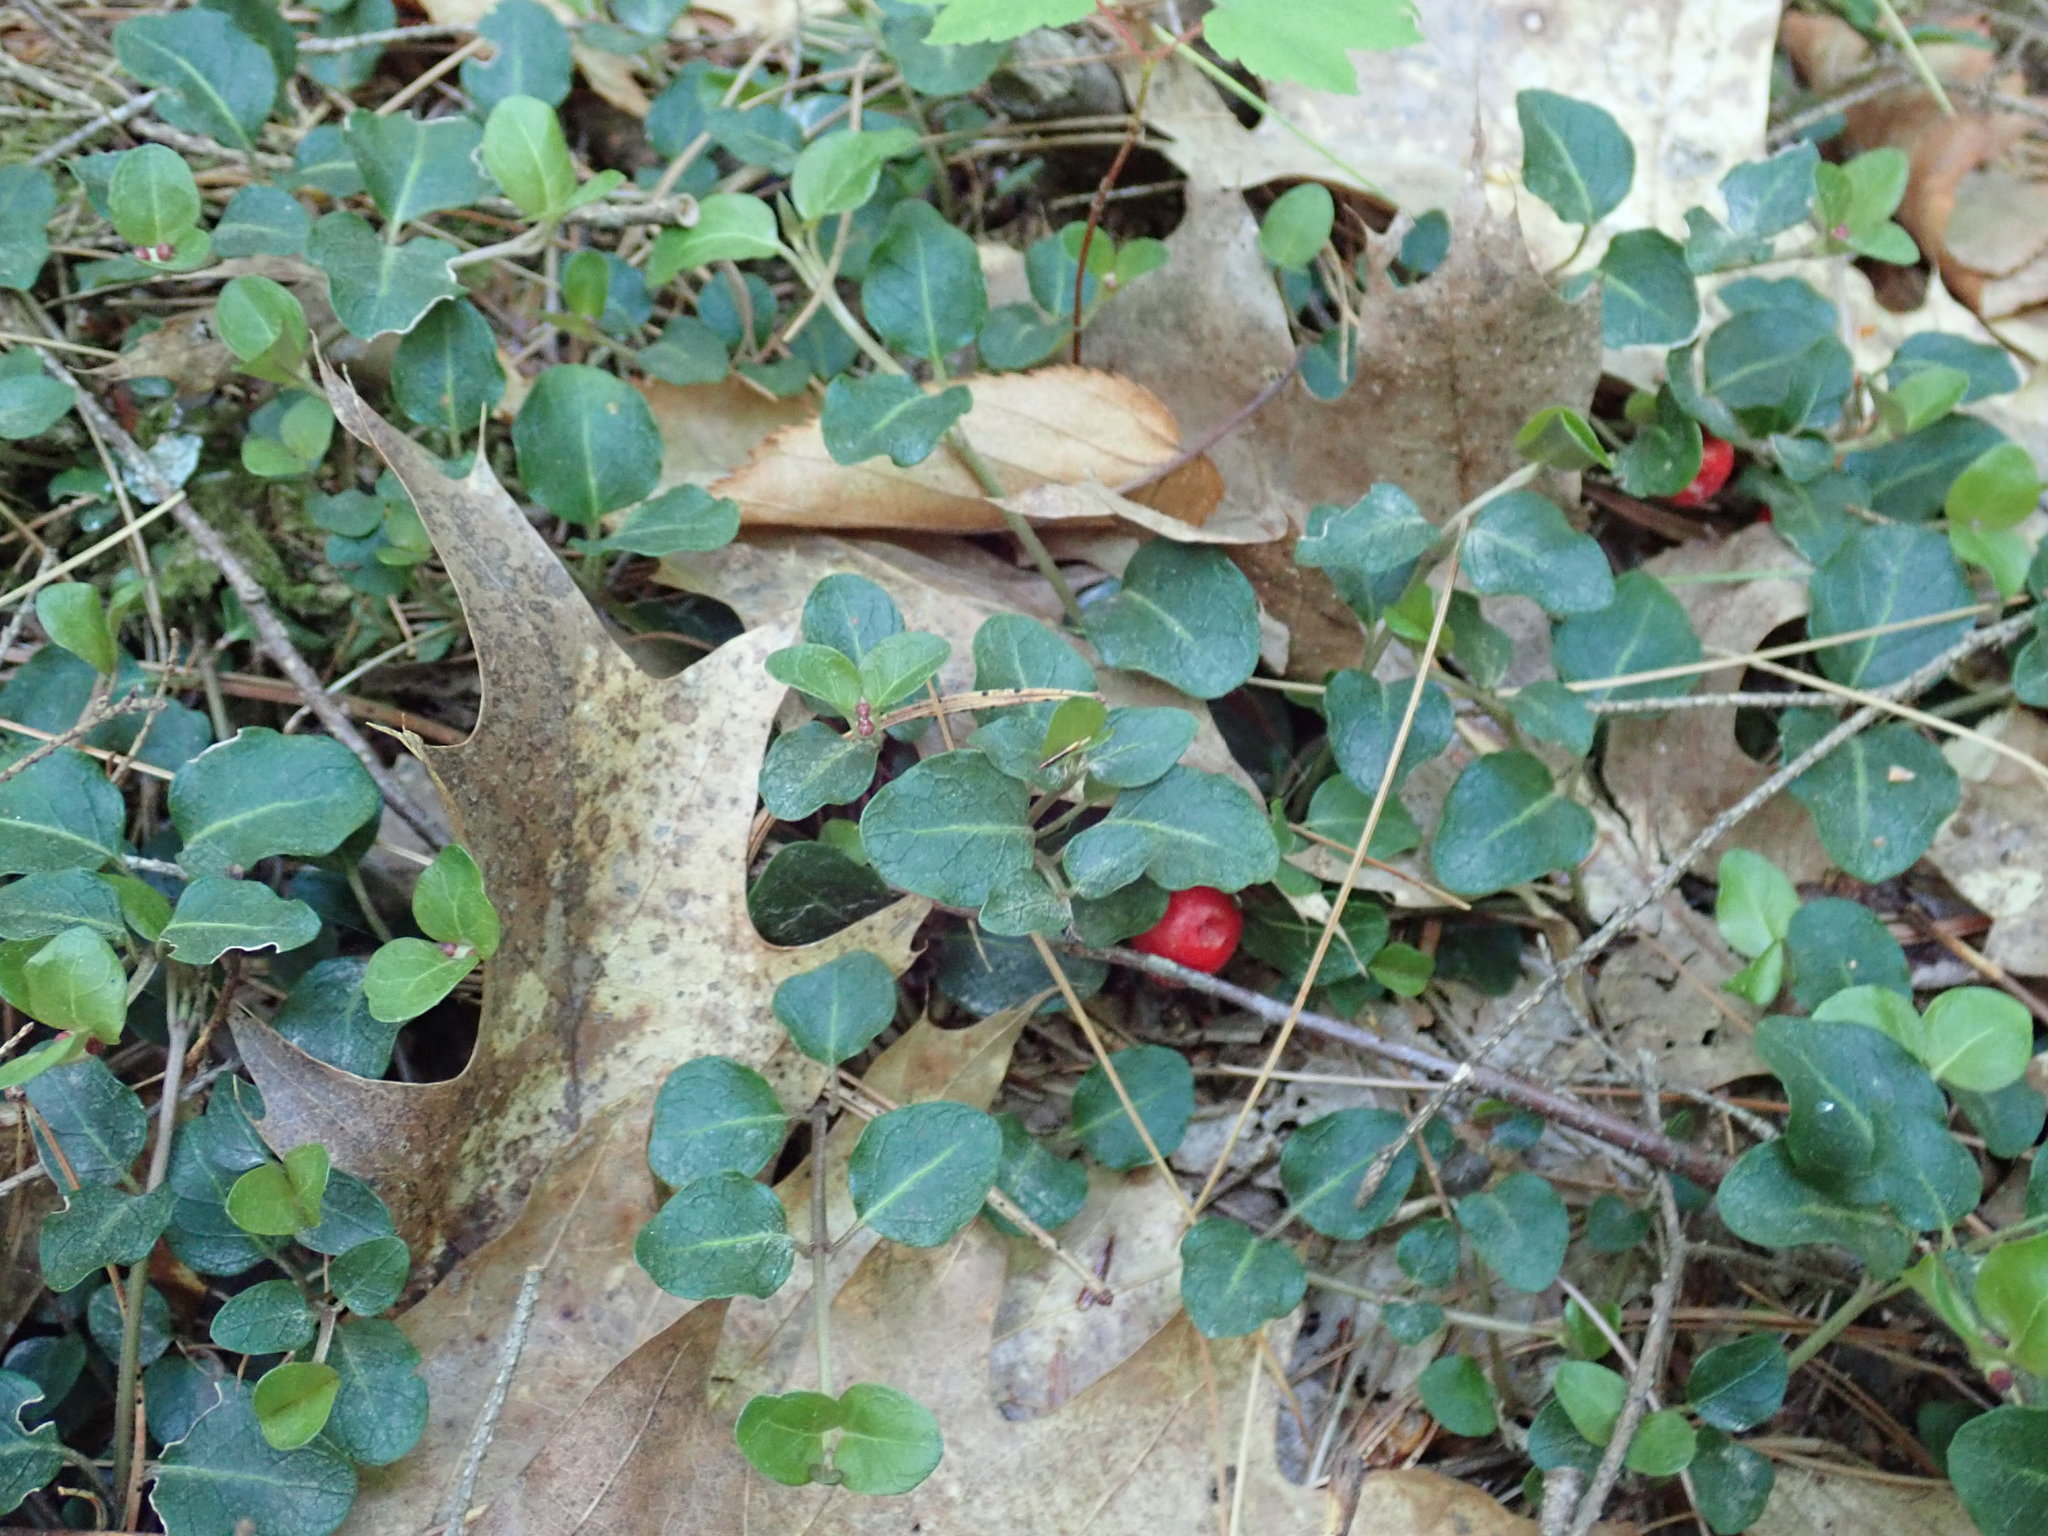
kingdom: Plantae
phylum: Tracheophyta
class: Magnoliopsida
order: Gentianales
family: Rubiaceae
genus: Mitchella
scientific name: Mitchella repens
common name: Partridge-berry
